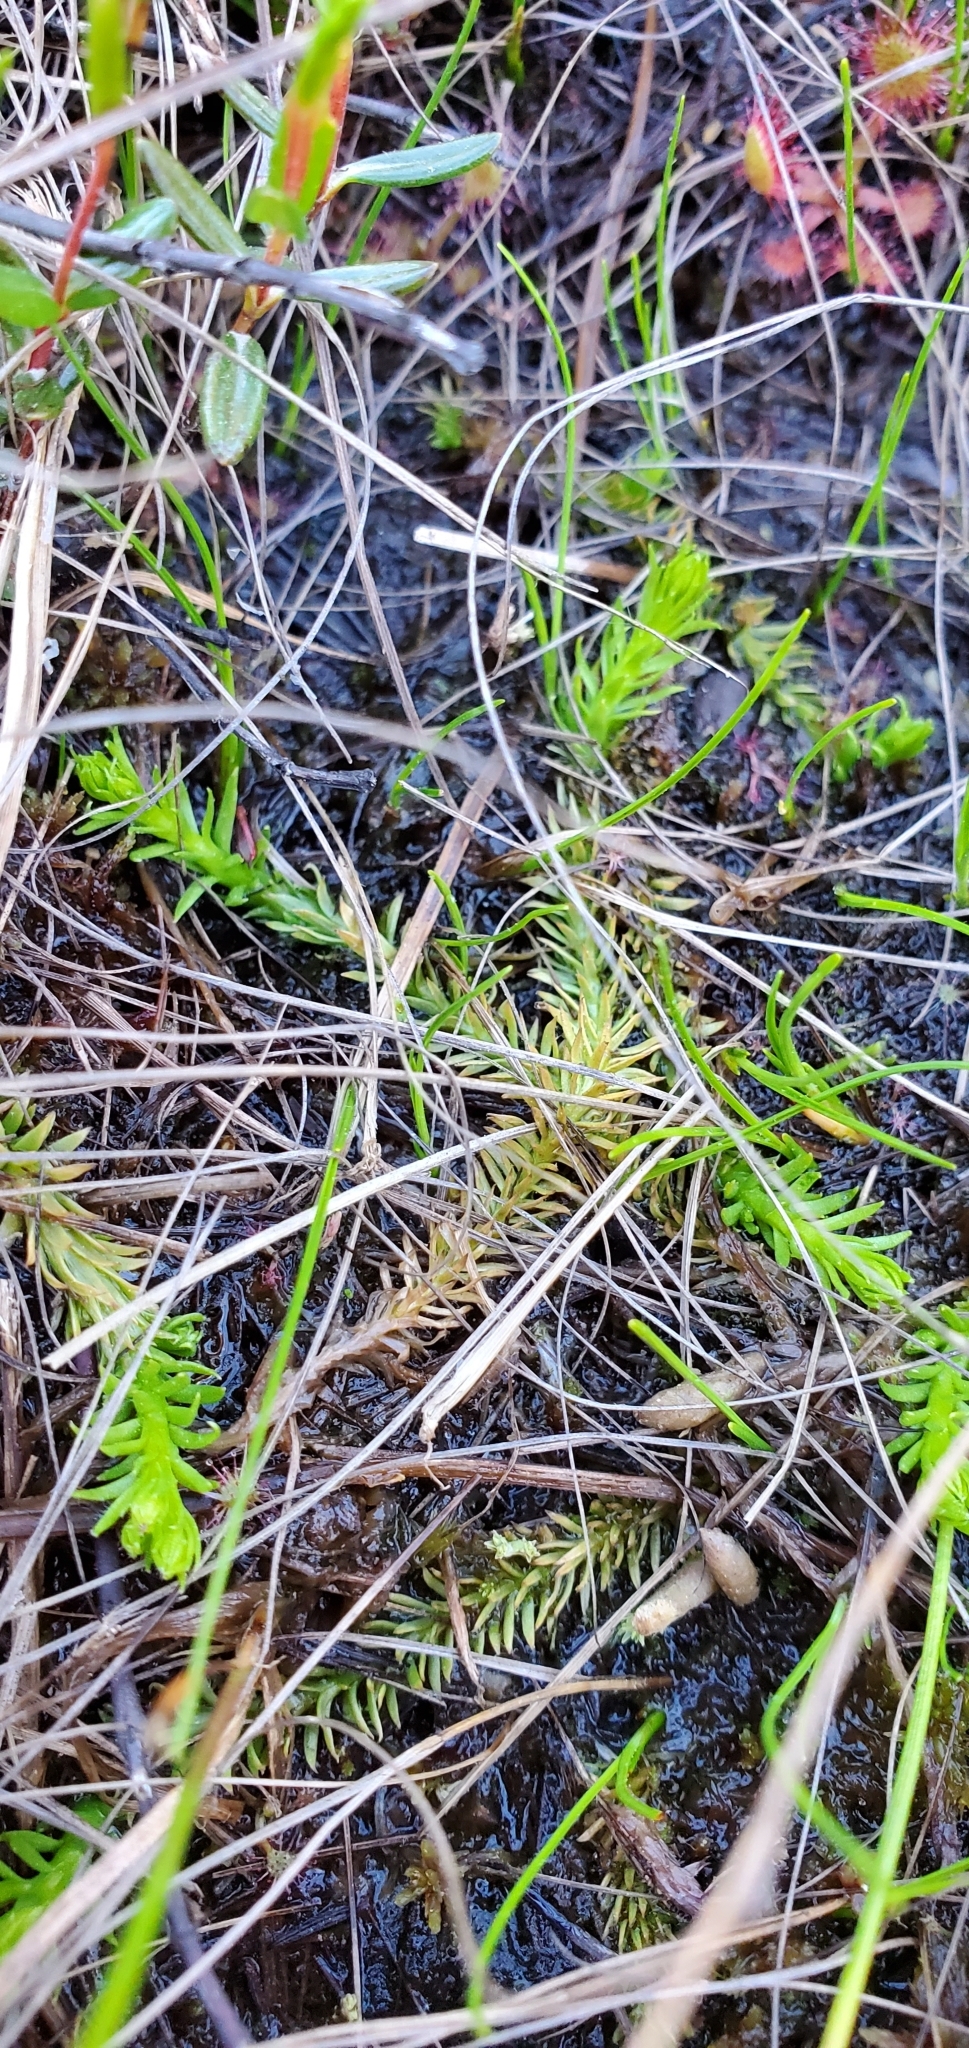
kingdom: Plantae
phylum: Tracheophyta
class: Lycopodiopsida
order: Lycopodiales
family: Lycopodiaceae
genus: Lycopodiella
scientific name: Lycopodiella inundata
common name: Marsh clubmoss
